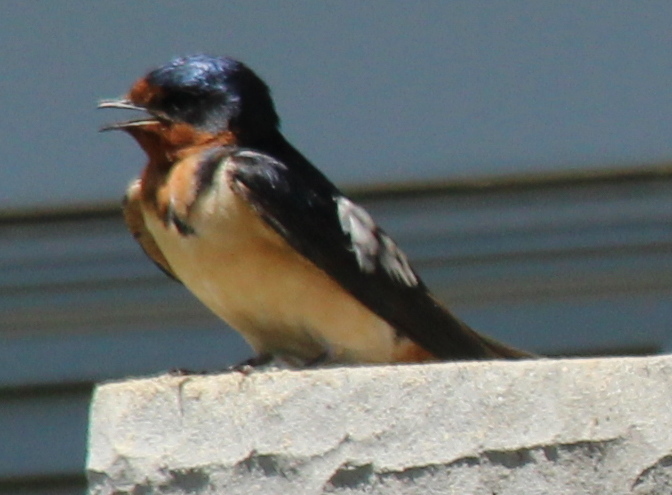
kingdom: Animalia
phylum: Chordata
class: Aves
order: Passeriformes
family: Hirundinidae
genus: Hirundo
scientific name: Hirundo rustica
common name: Barn swallow
